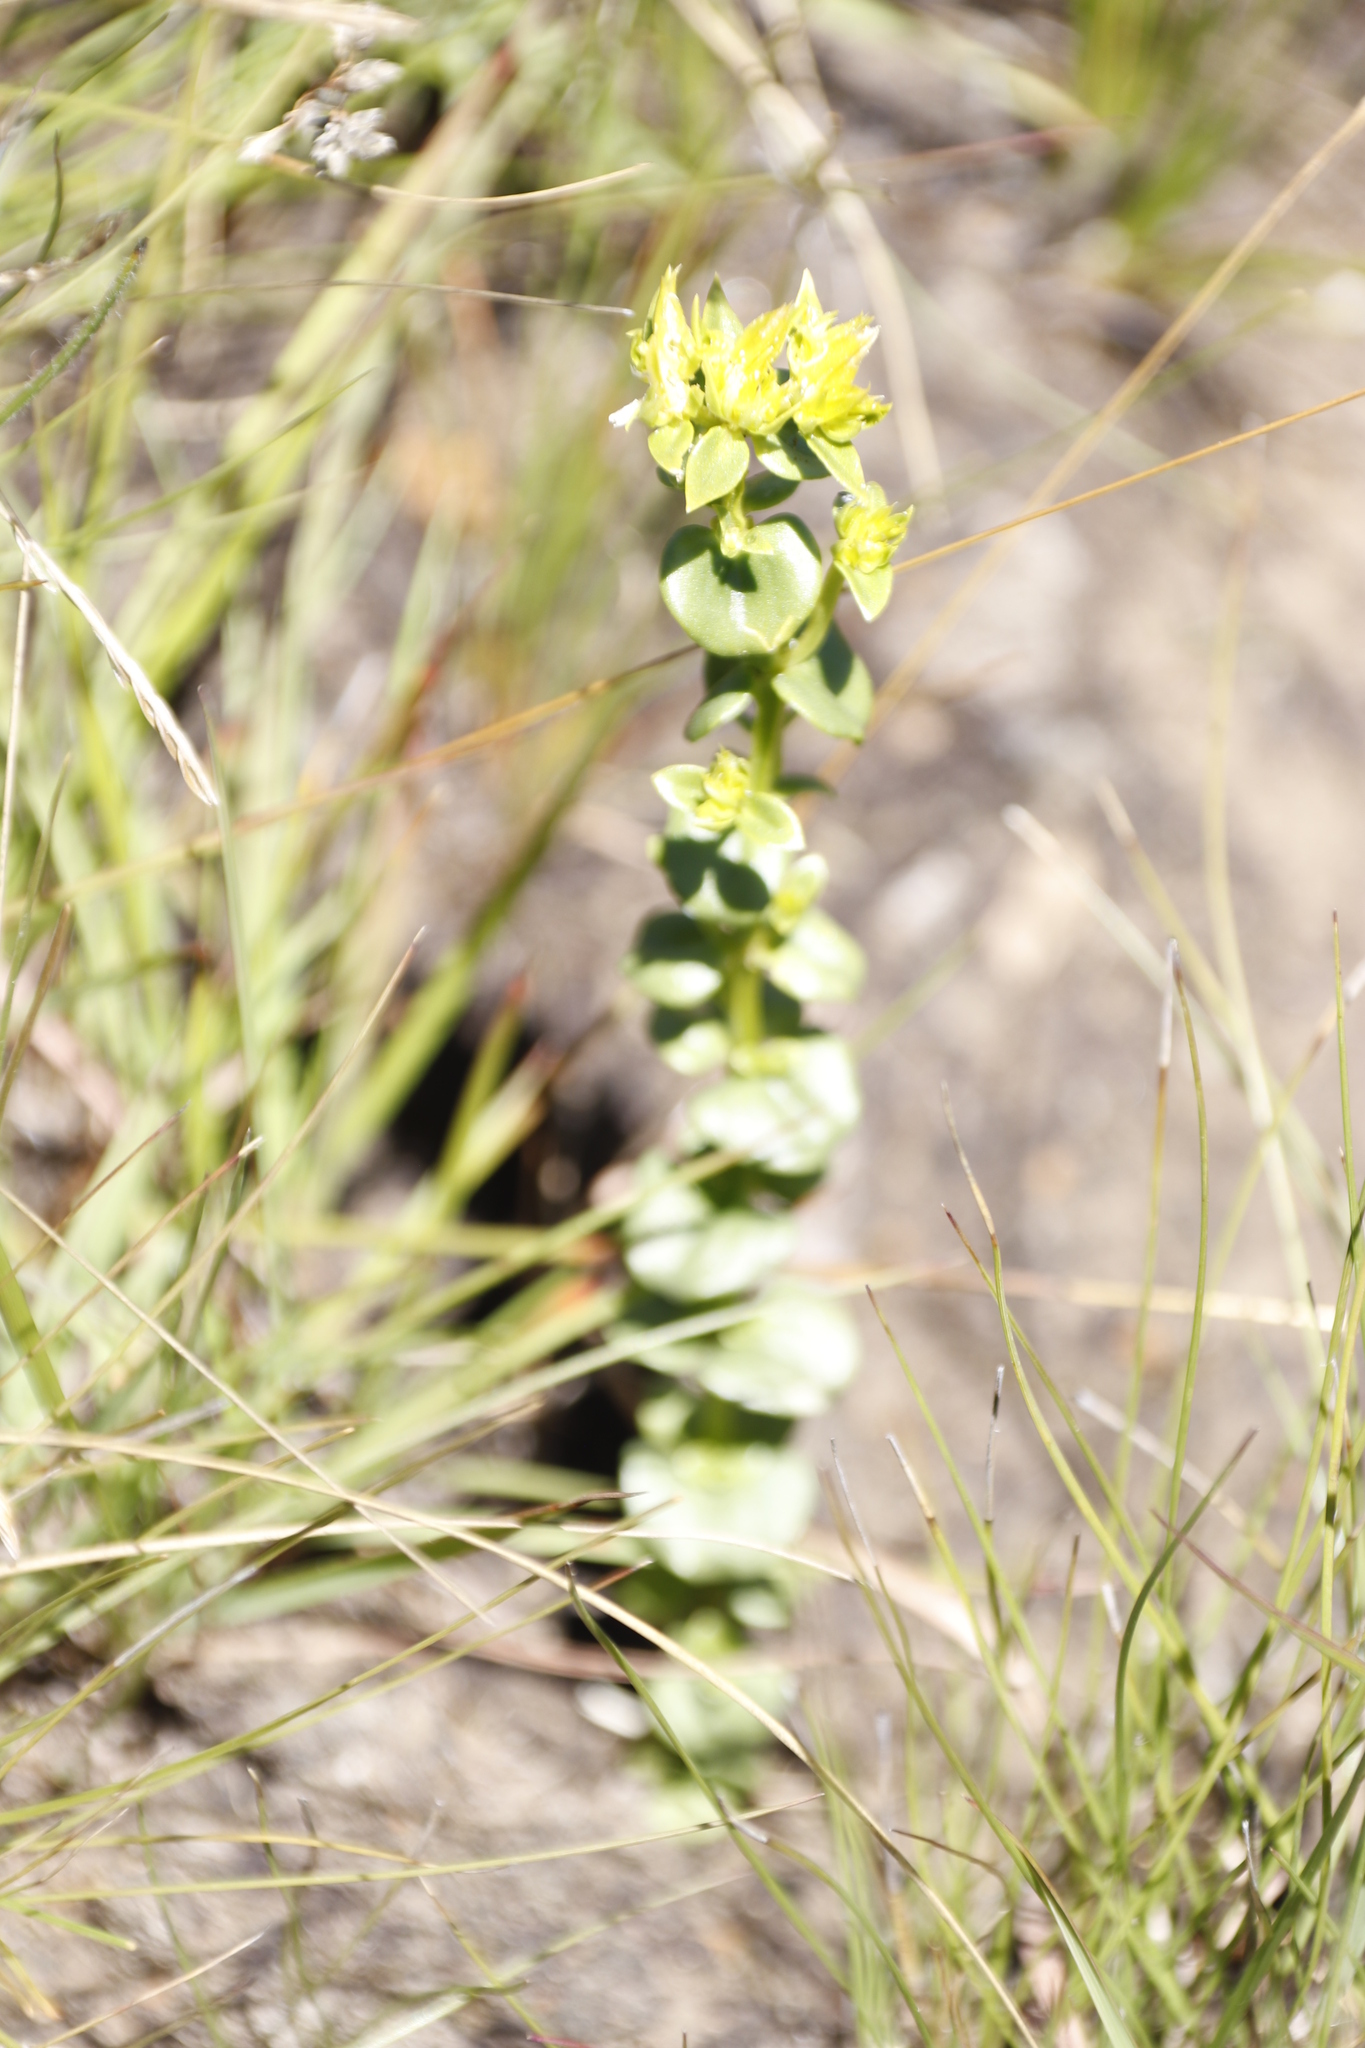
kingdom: Plantae
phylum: Tracheophyta
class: Magnoliopsida
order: Gentianales
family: Gentianaceae
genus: Sebaea
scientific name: Sebaea natalensis
